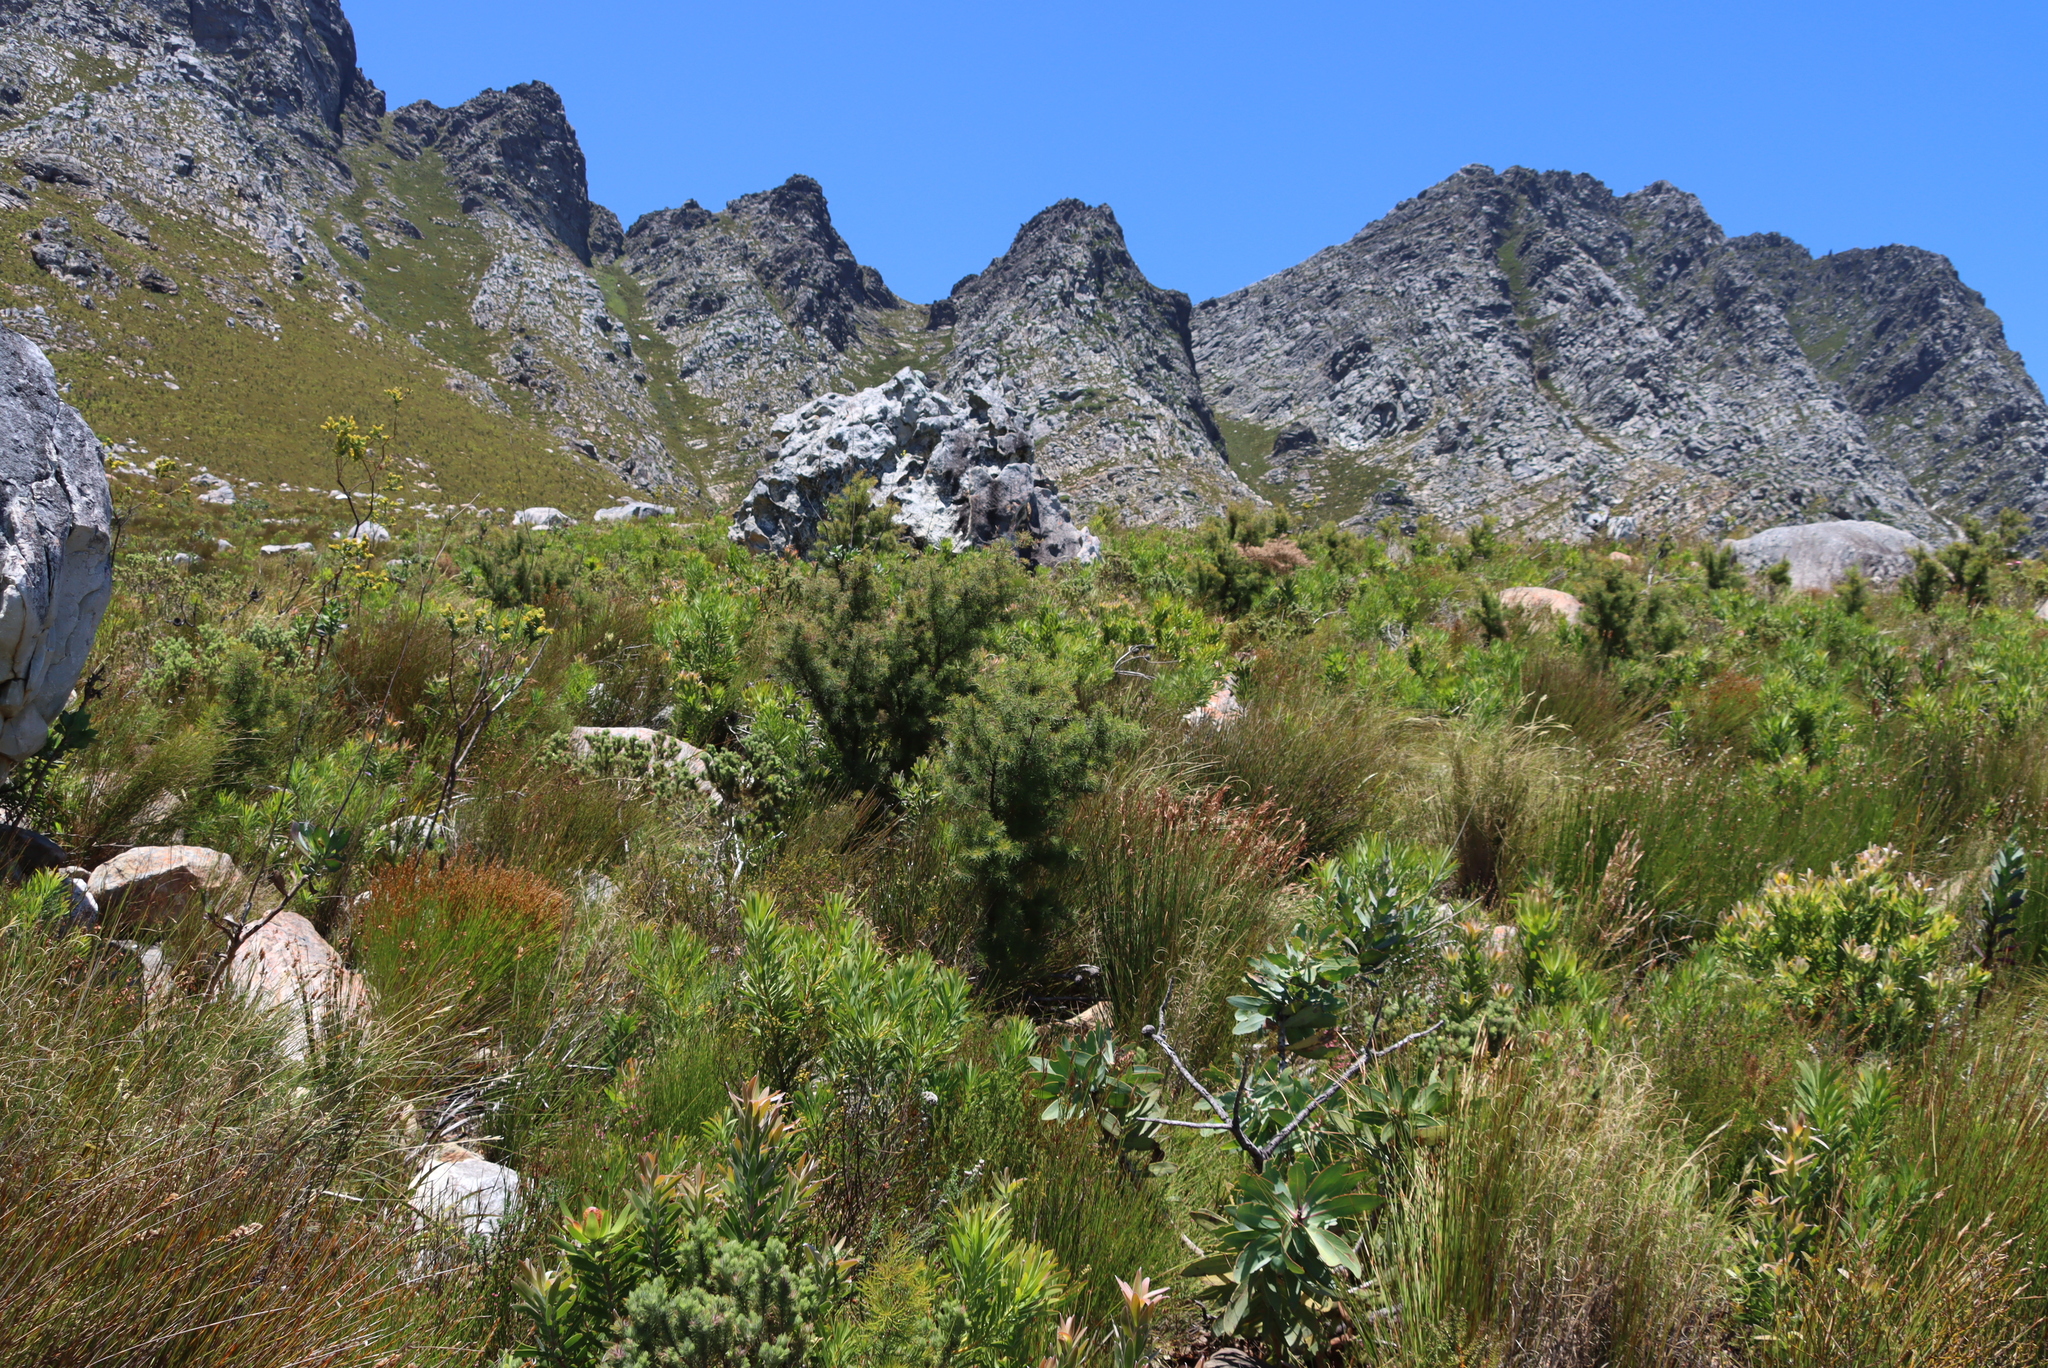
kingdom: Plantae
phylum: Tracheophyta
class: Magnoliopsida
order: Proteales
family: Proteaceae
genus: Hakea
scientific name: Hakea sericea
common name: Needle bush
